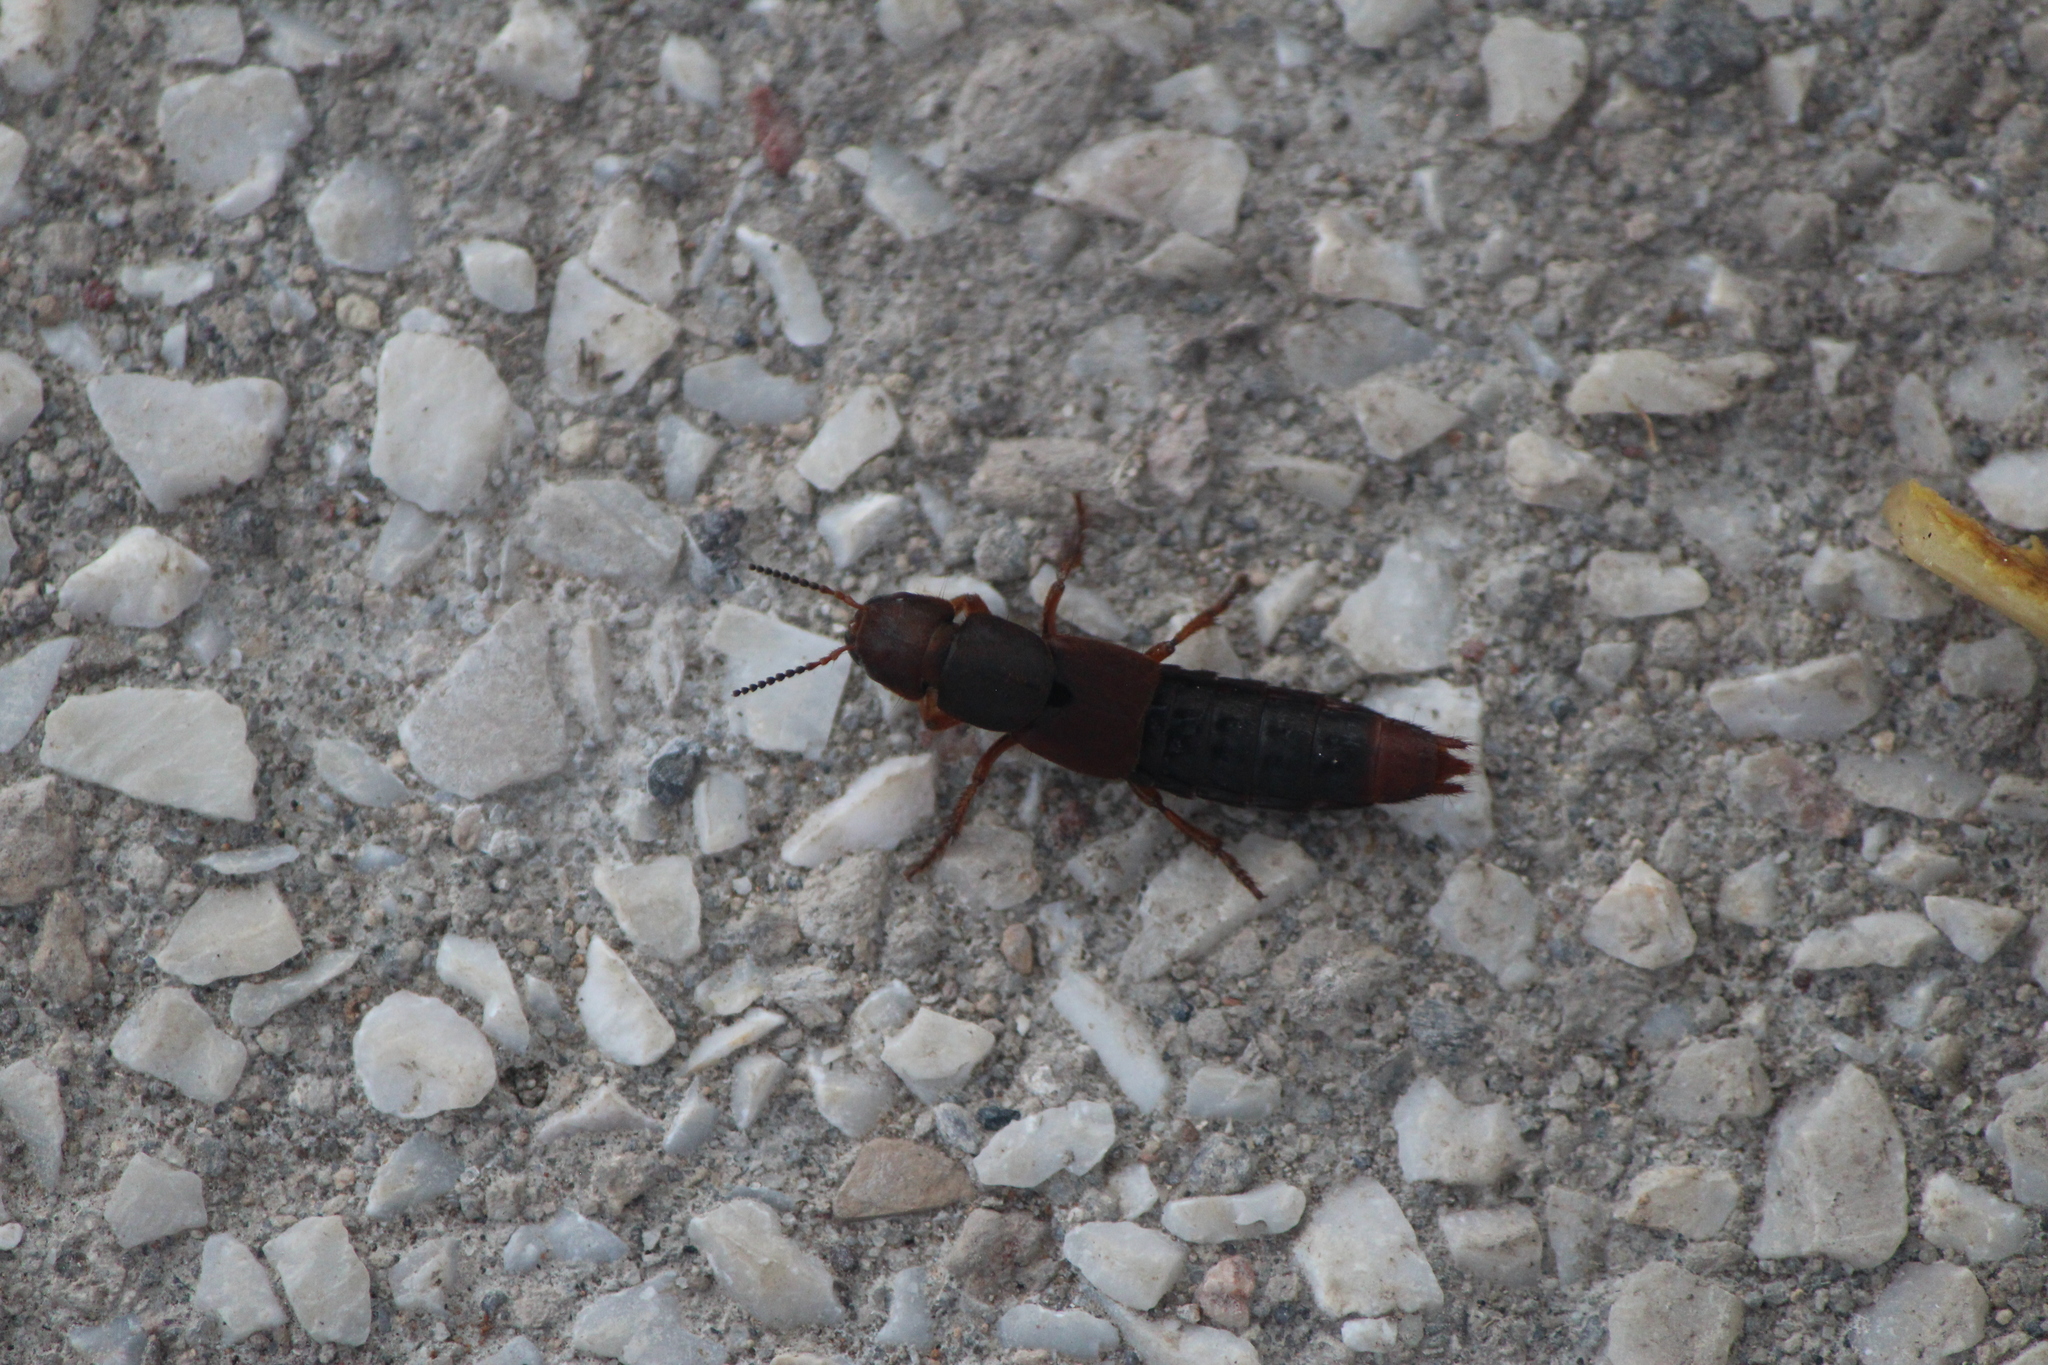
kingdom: Animalia
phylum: Arthropoda
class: Insecta
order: Coleoptera
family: Staphylinidae
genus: Platydracus
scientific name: Platydracus phoenicurus
